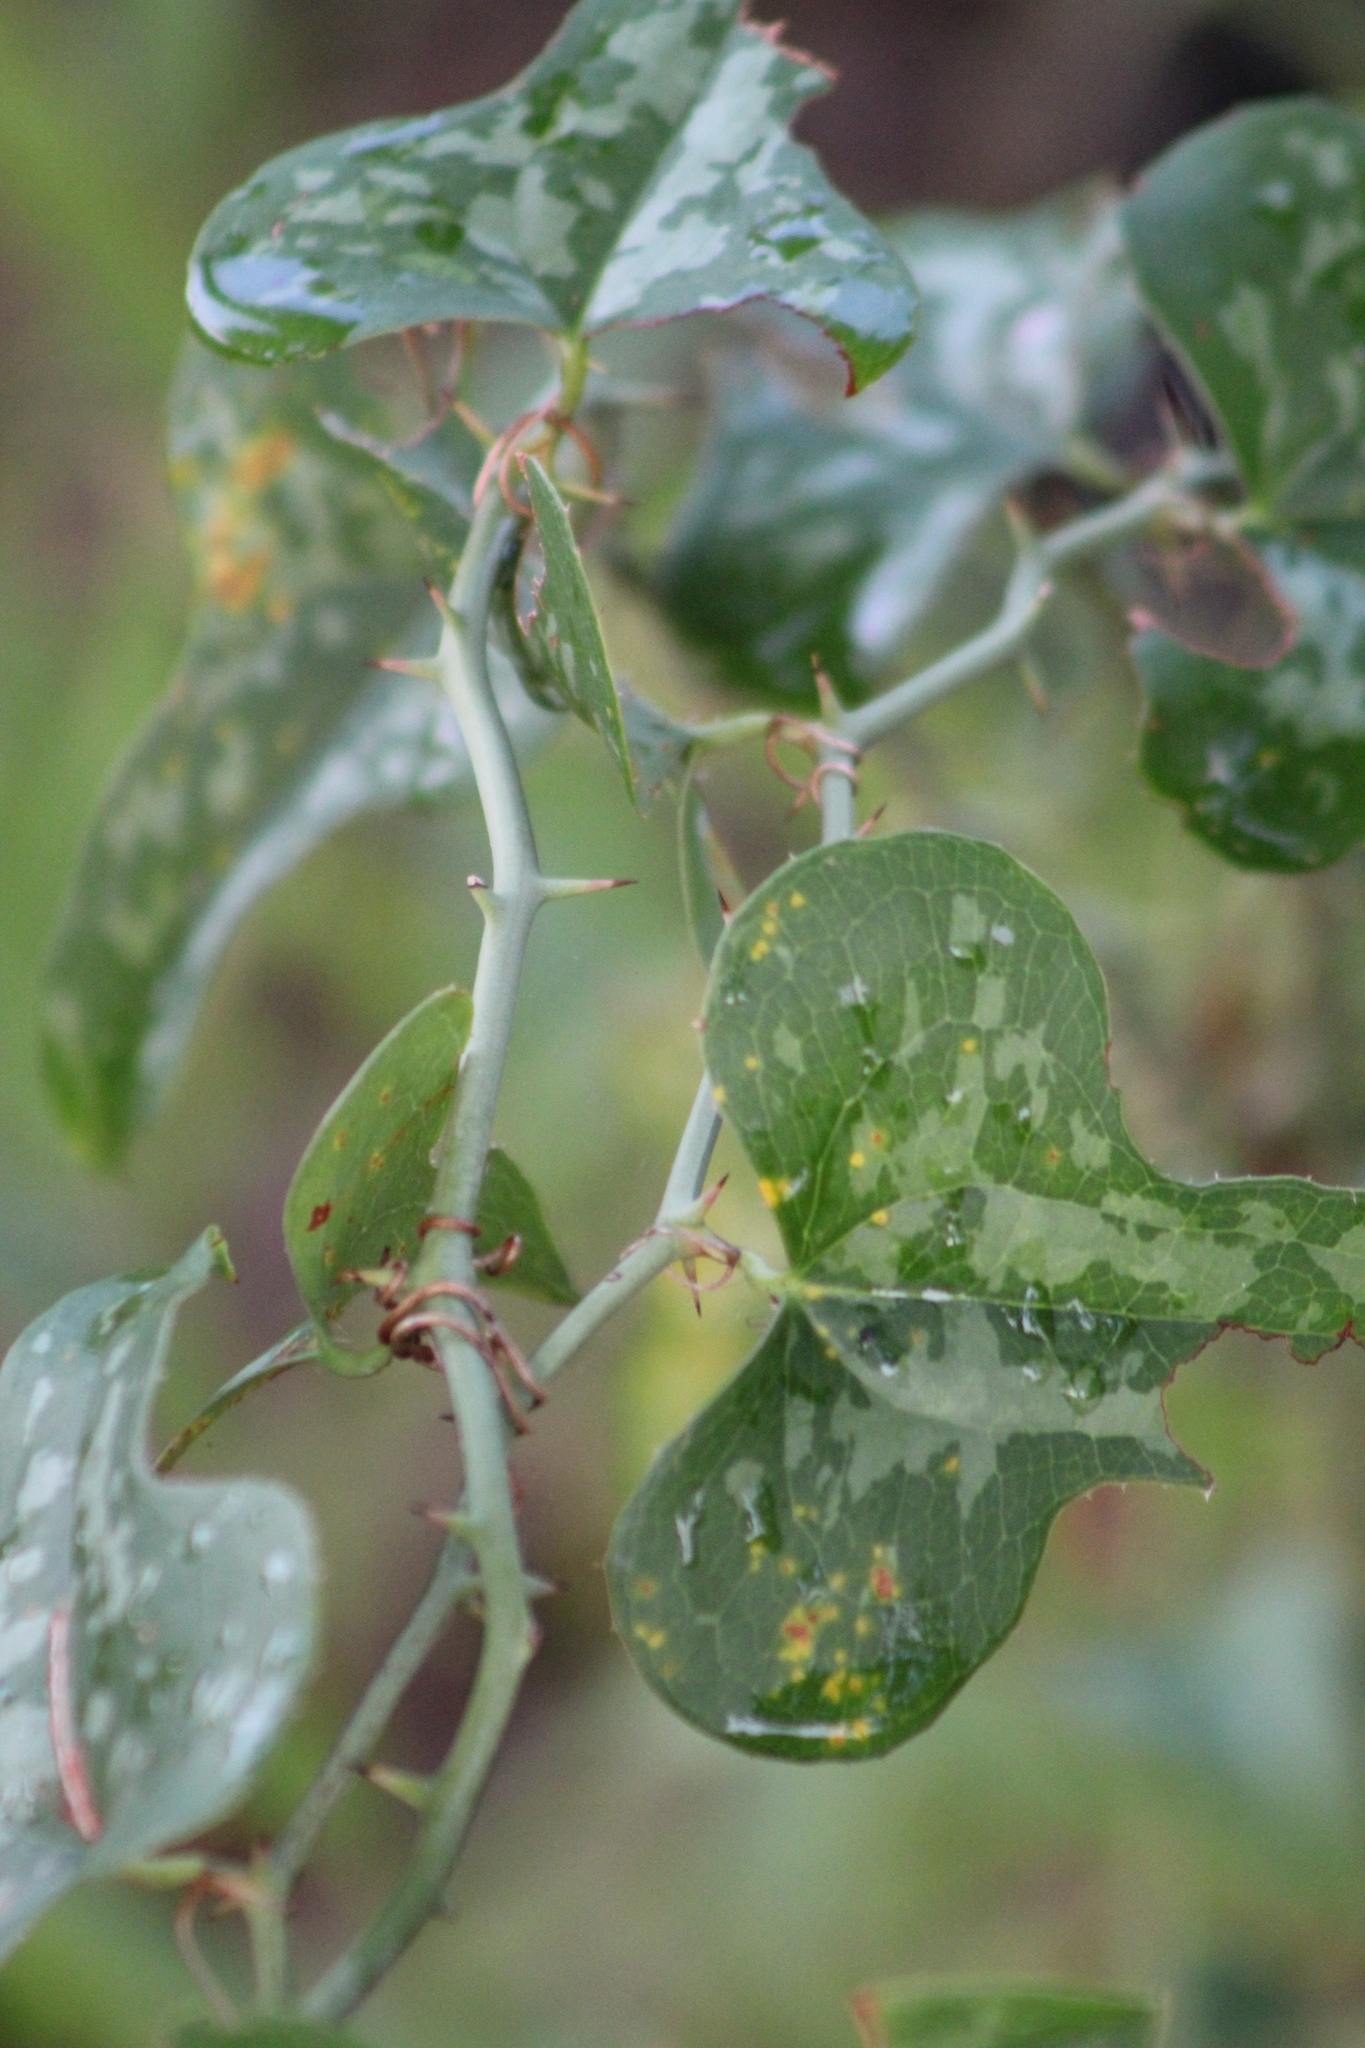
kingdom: Plantae
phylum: Tracheophyta
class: Liliopsida
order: Liliales
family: Smilacaceae
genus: Smilax
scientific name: Smilax bona-nox
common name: Catbrier
